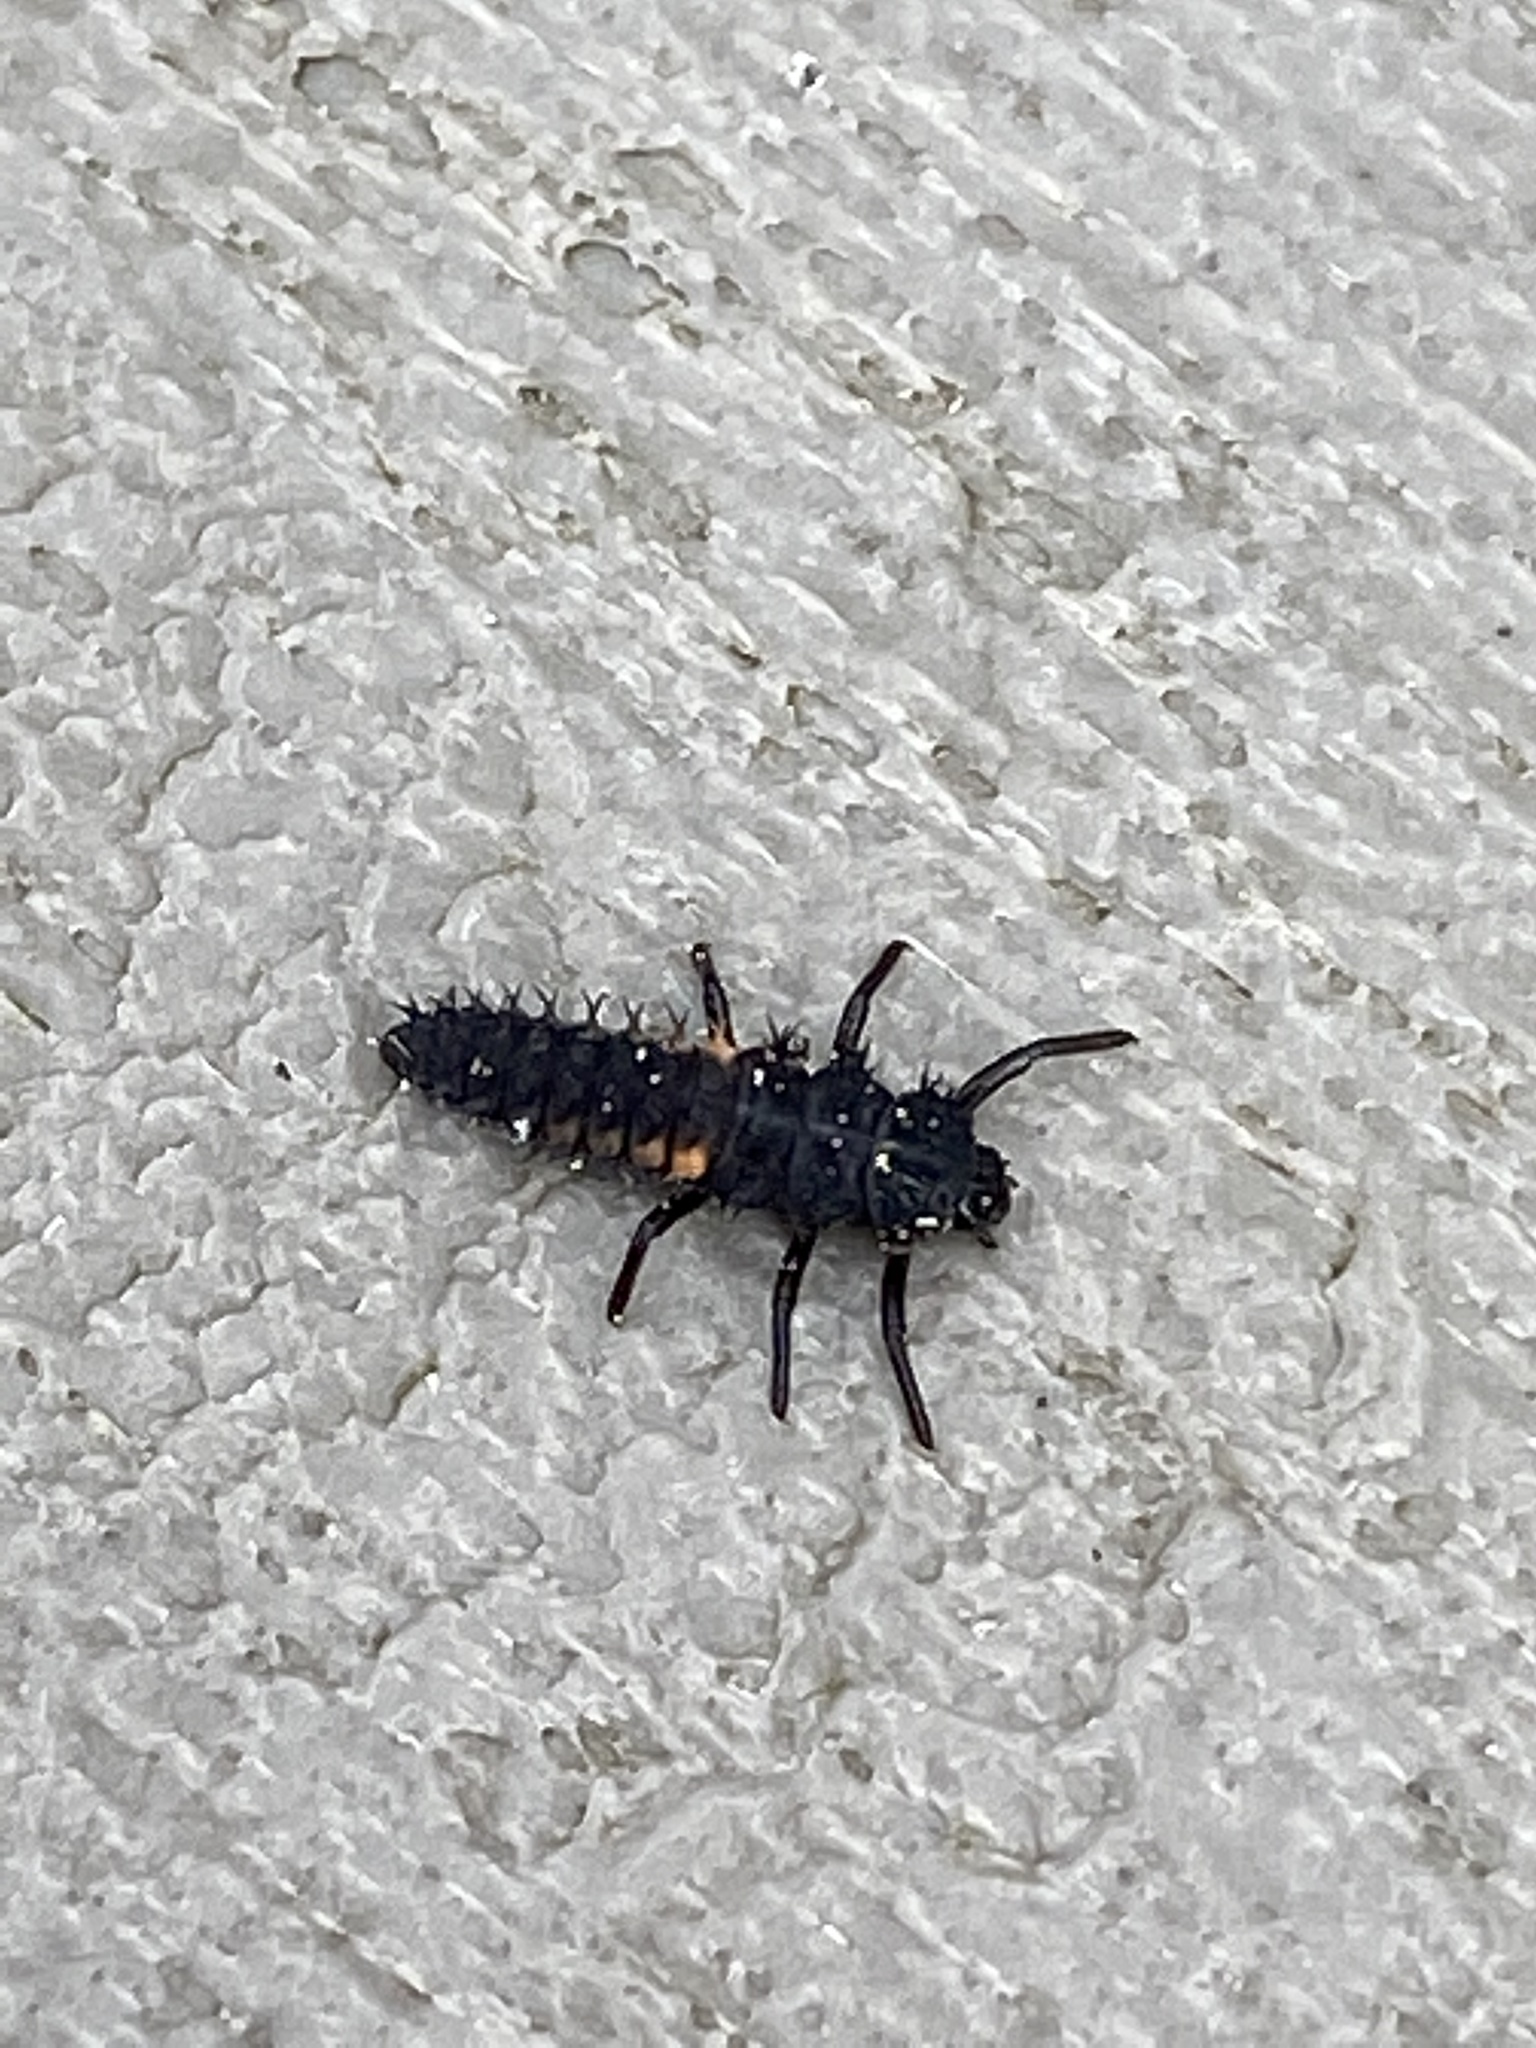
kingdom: Animalia
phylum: Arthropoda
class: Insecta
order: Coleoptera
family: Coccinellidae
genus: Harmonia
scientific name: Harmonia axyridis
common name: Harlequin ladybird
